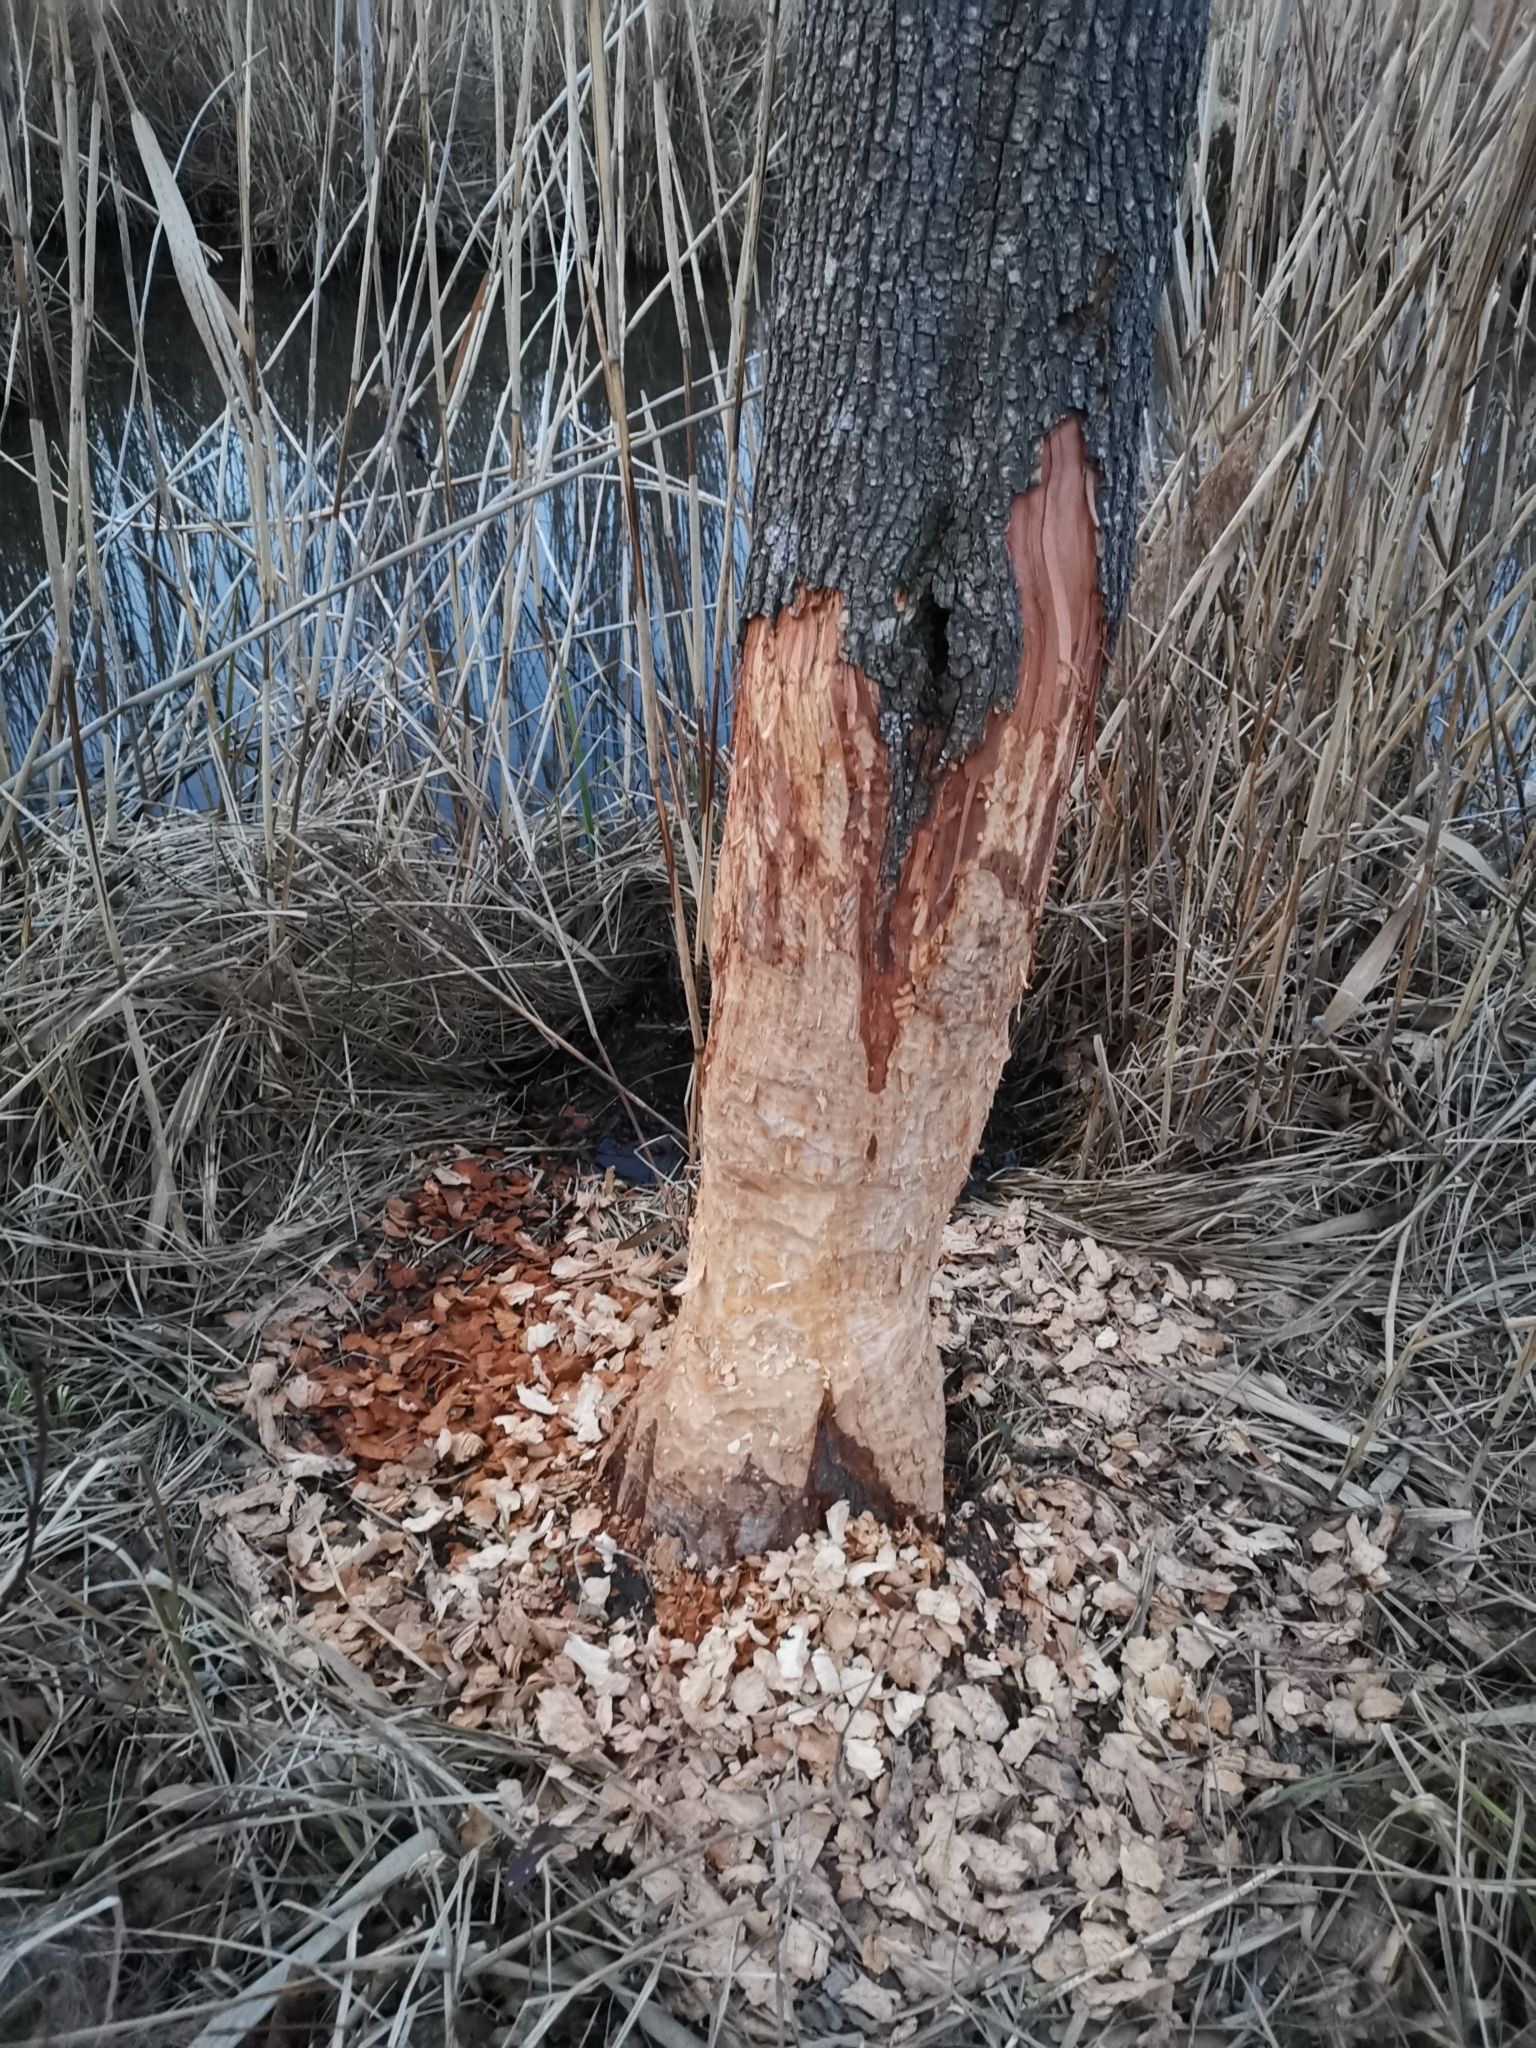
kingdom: Animalia
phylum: Chordata
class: Mammalia
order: Rodentia
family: Castoridae
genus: Castor
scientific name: Castor fiber
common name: Eurasian beaver
